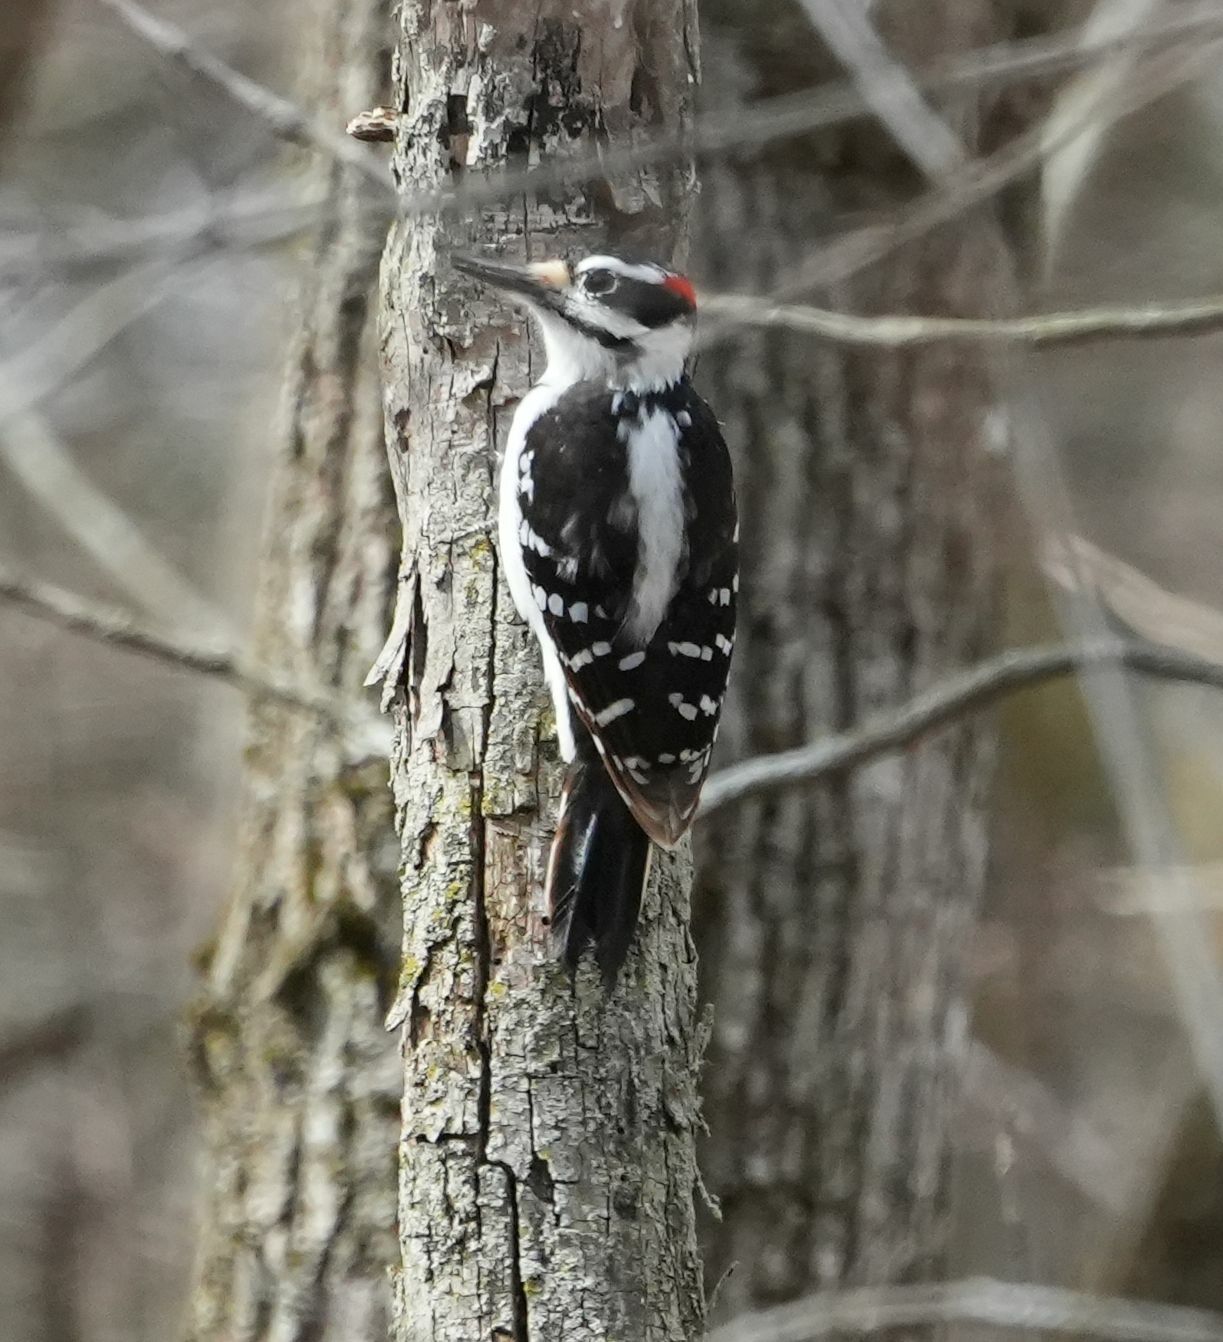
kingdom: Animalia
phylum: Chordata
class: Aves
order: Piciformes
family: Picidae
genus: Leuconotopicus
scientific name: Leuconotopicus villosus
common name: Hairy woodpecker
